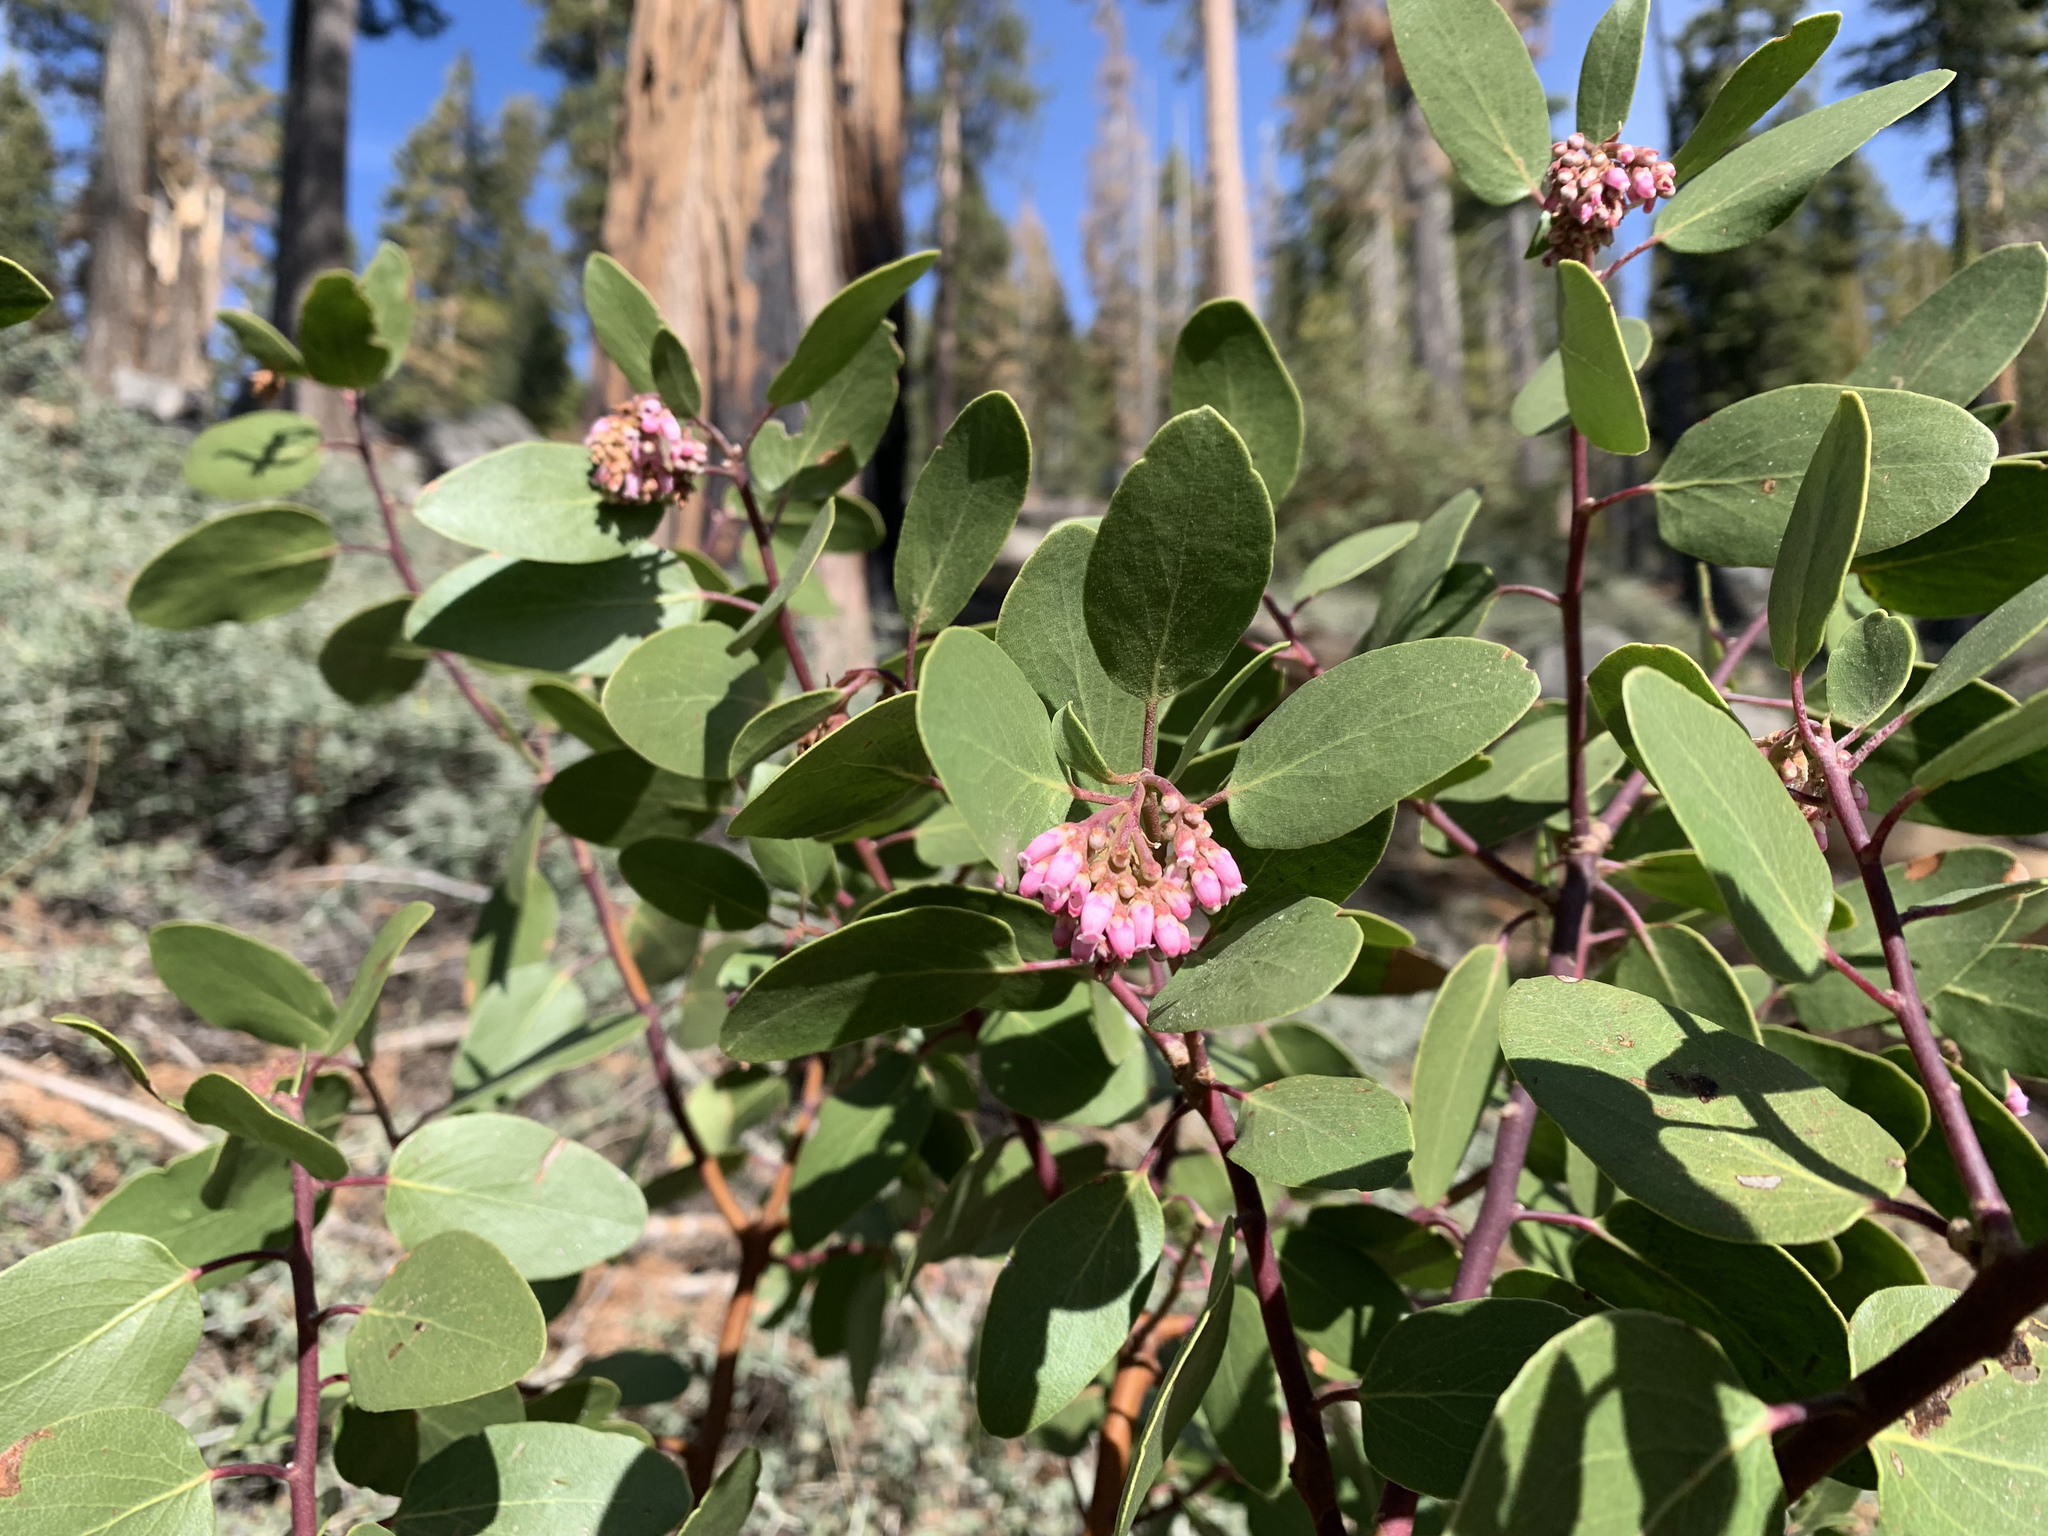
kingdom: Plantae
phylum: Tracheophyta
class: Magnoliopsida
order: Ericales
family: Ericaceae
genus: Arctostaphylos
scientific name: Arctostaphylos patula
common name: Green-leaf manzanita
